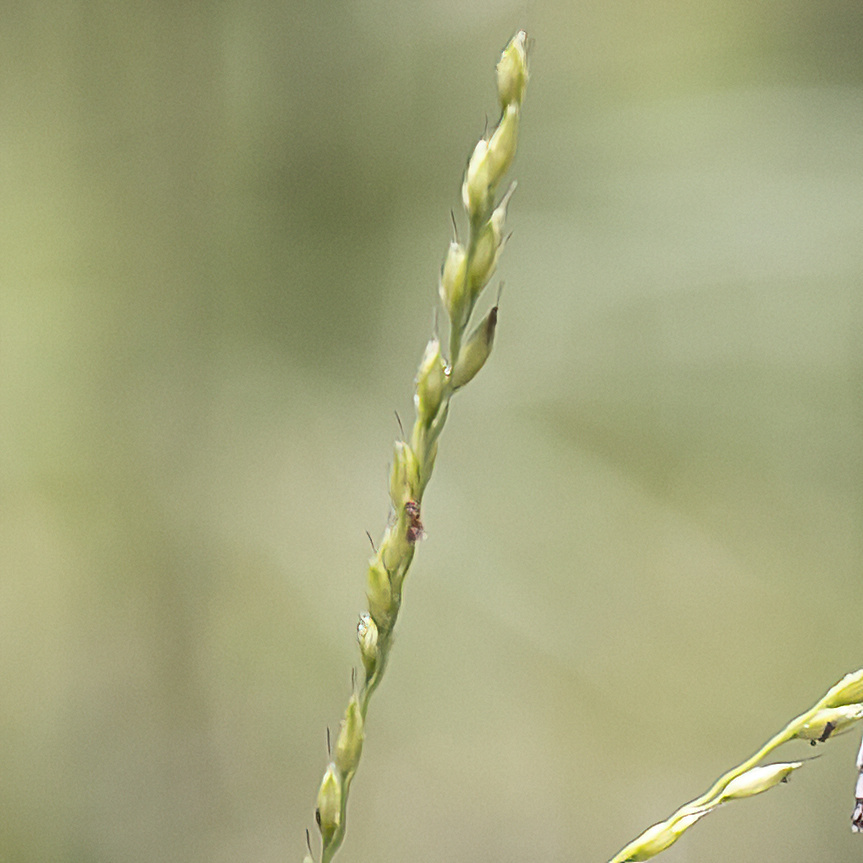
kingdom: Plantae
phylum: Tracheophyta
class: Liliopsida
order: Poales
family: Poaceae
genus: Alloteropsis
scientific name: Alloteropsis semialata
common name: Cockatoo grass
